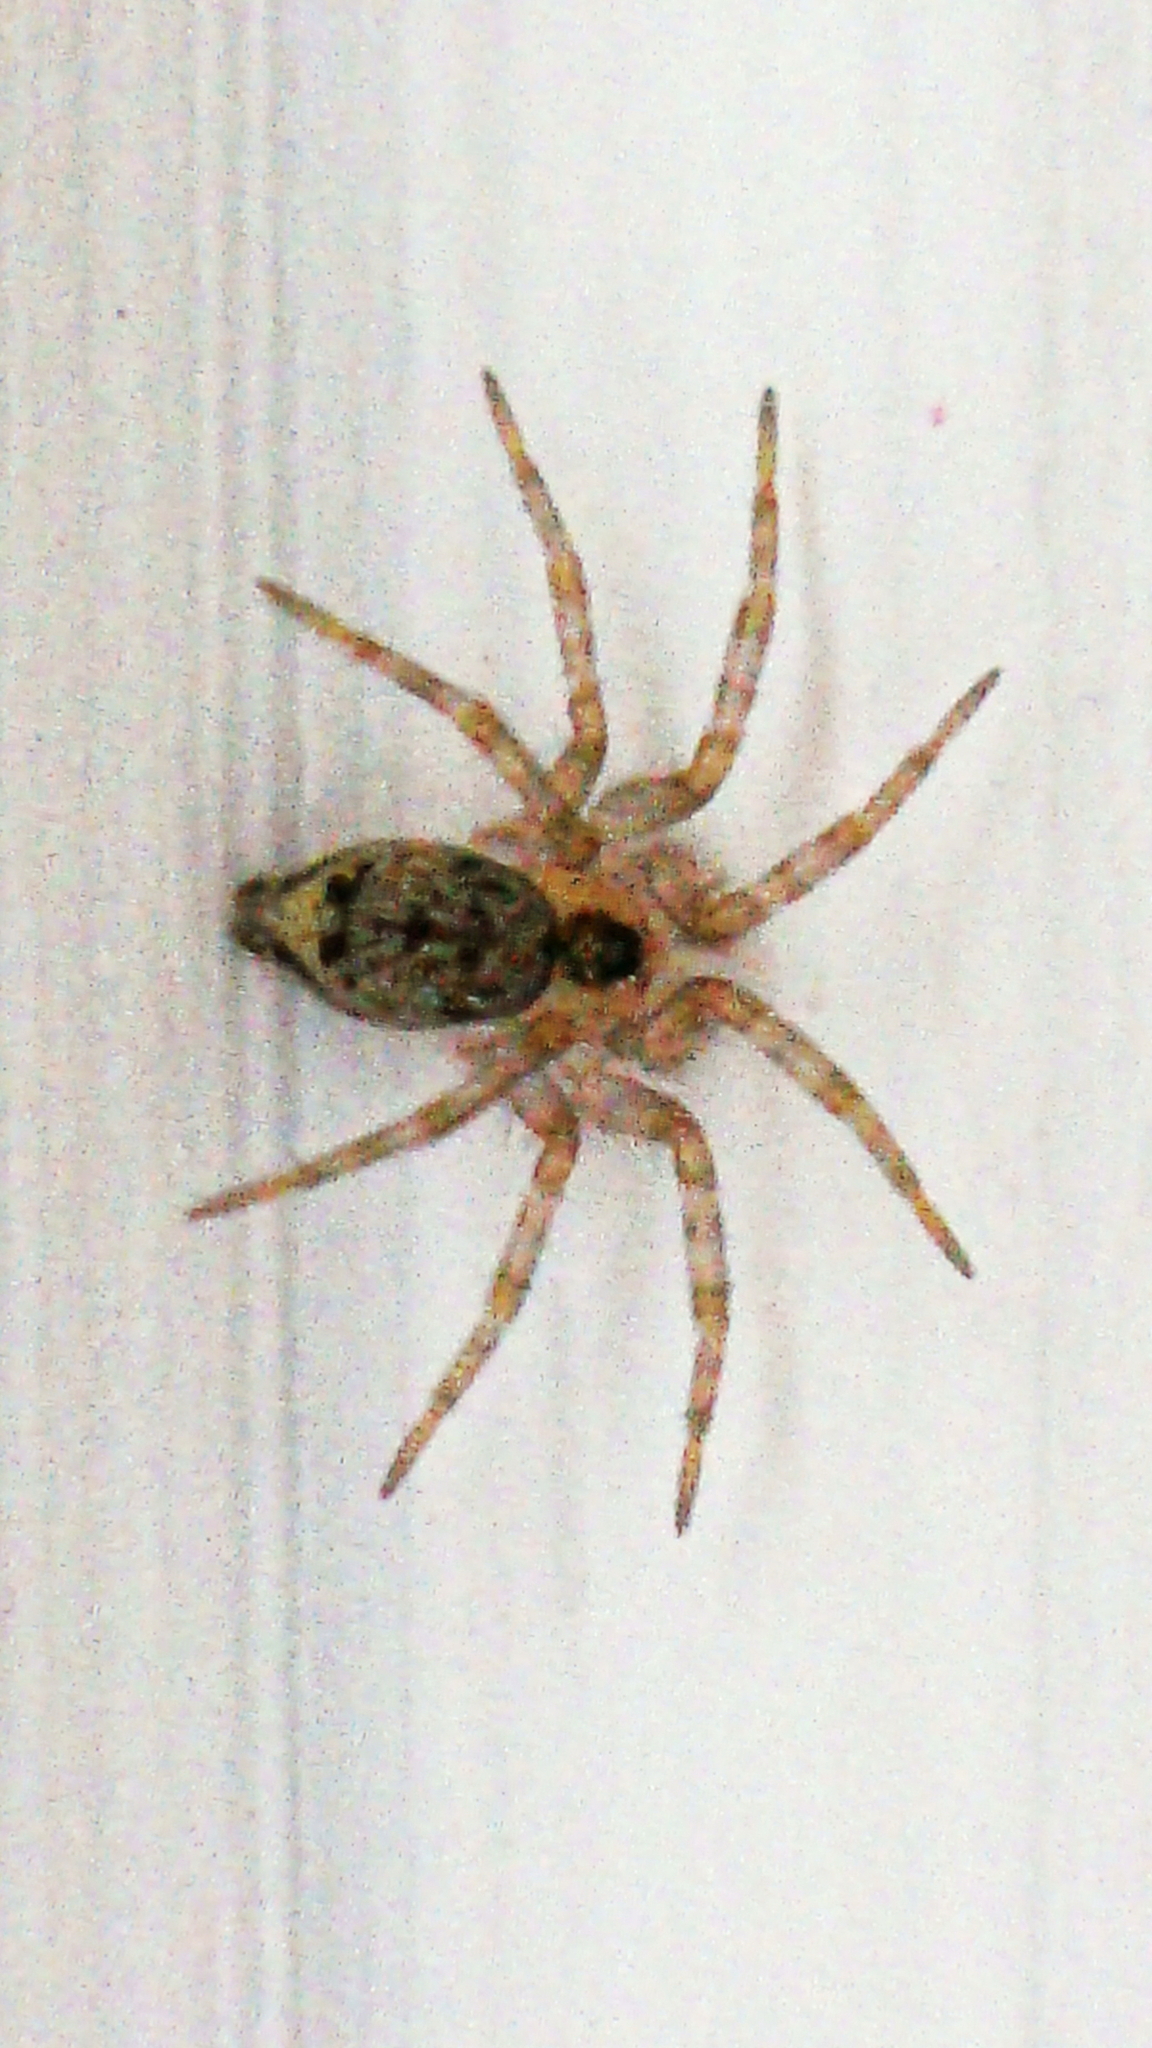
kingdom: Animalia
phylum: Arthropoda
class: Arachnida
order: Araneae
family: Oecobiidae
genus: Oecobius
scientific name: Oecobius navus
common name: Flatmesh weaver
